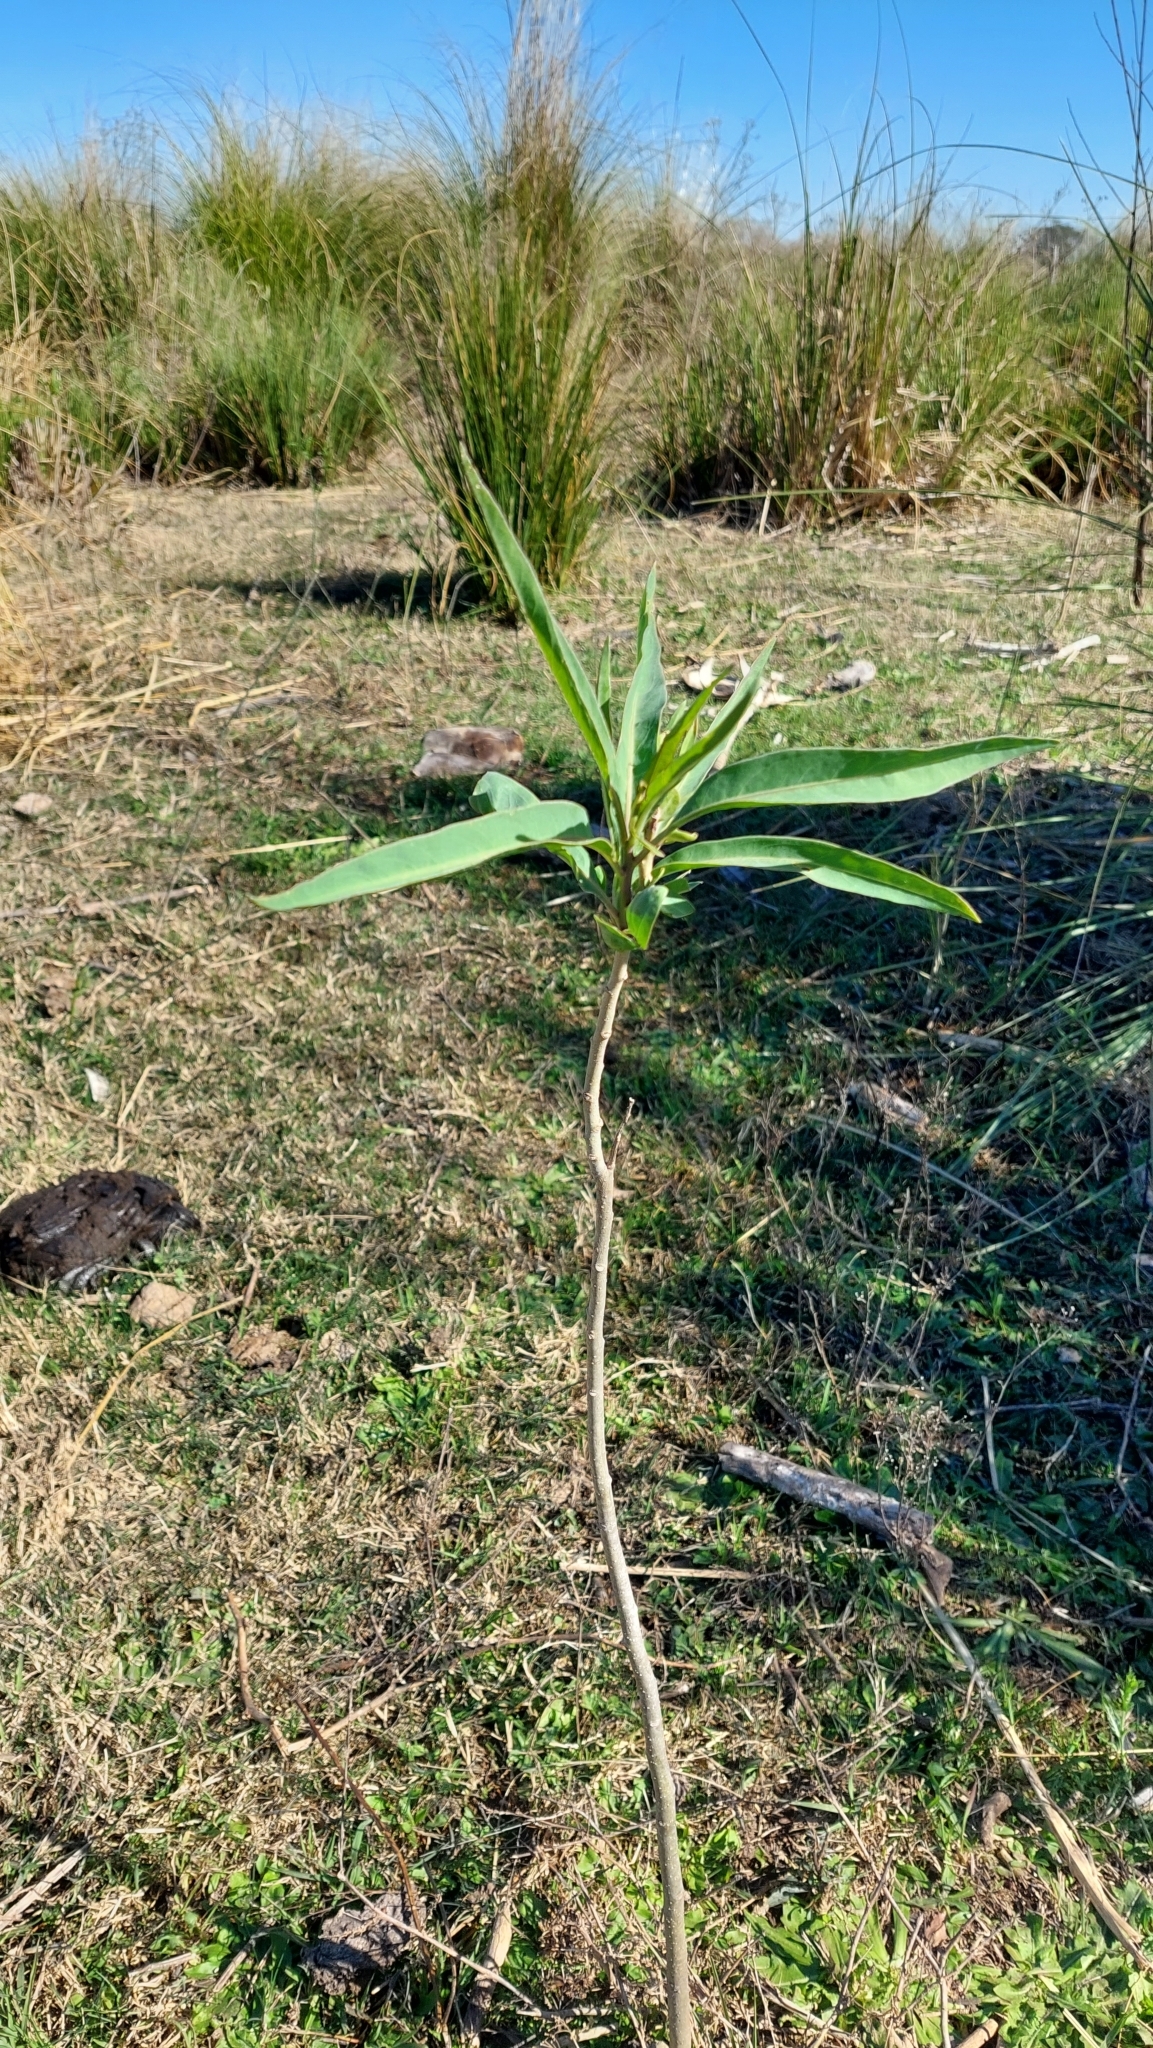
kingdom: Plantae
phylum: Tracheophyta
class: Magnoliopsida
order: Solanales
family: Solanaceae
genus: Solanum
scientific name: Solanum glaucophyllum
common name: Waxyleaf nightshade
